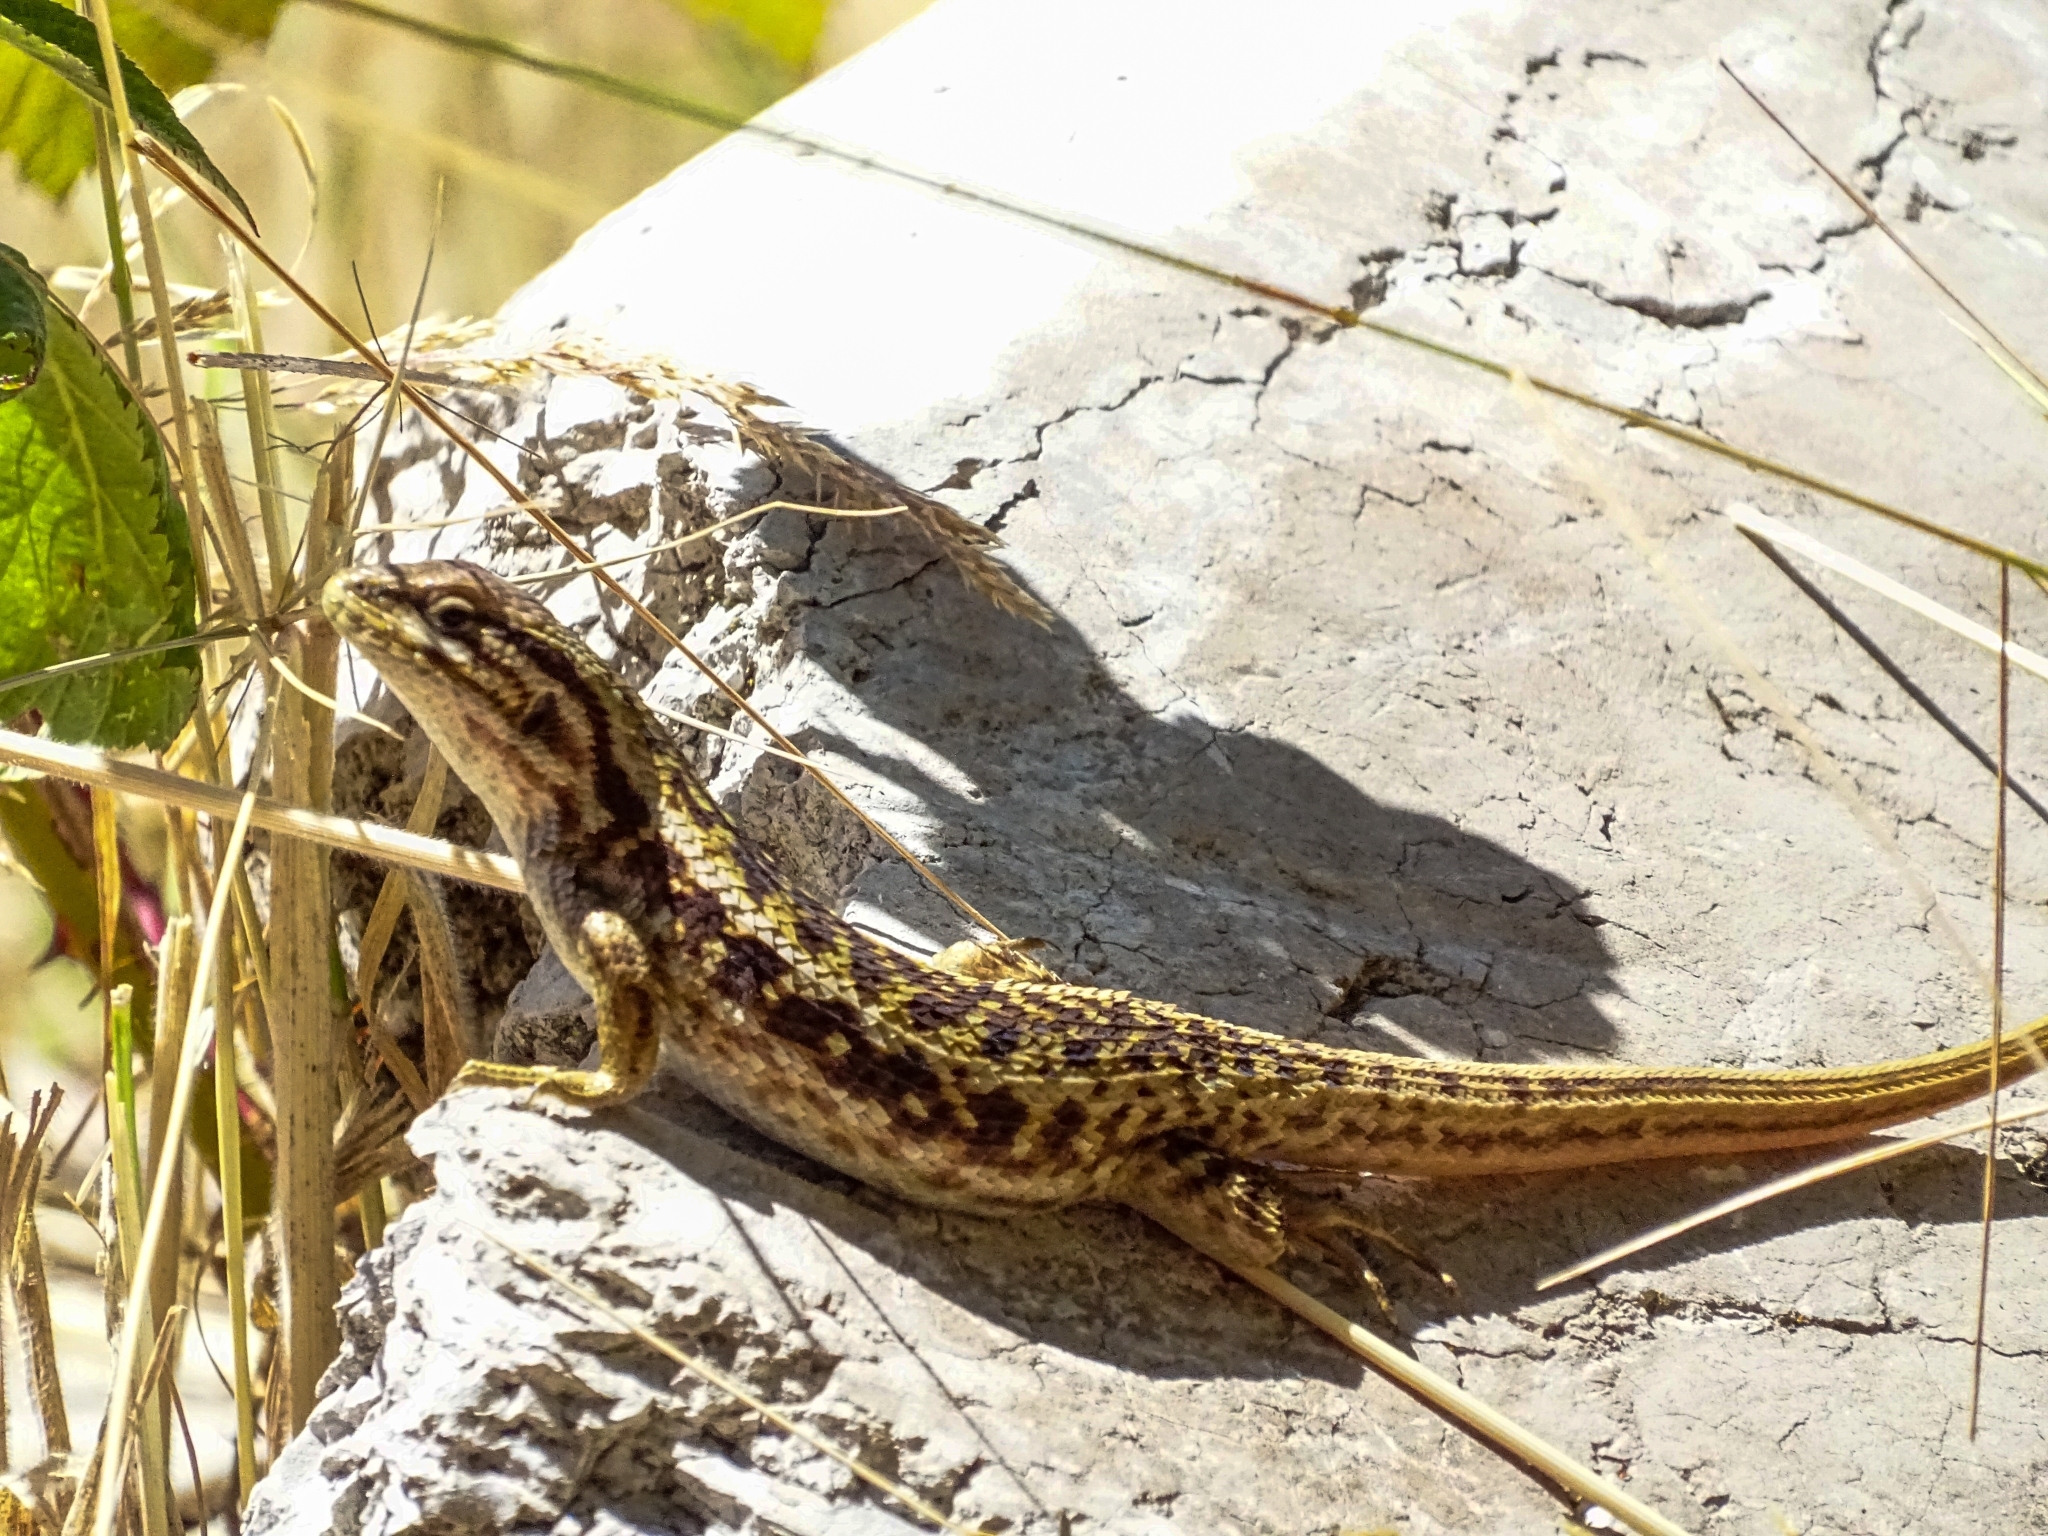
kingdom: Animalia
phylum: Chordata
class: Squamata
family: Liolaemidae
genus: Liolaemus
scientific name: Liolaemus chiliensis
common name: Chilean tree iguana
